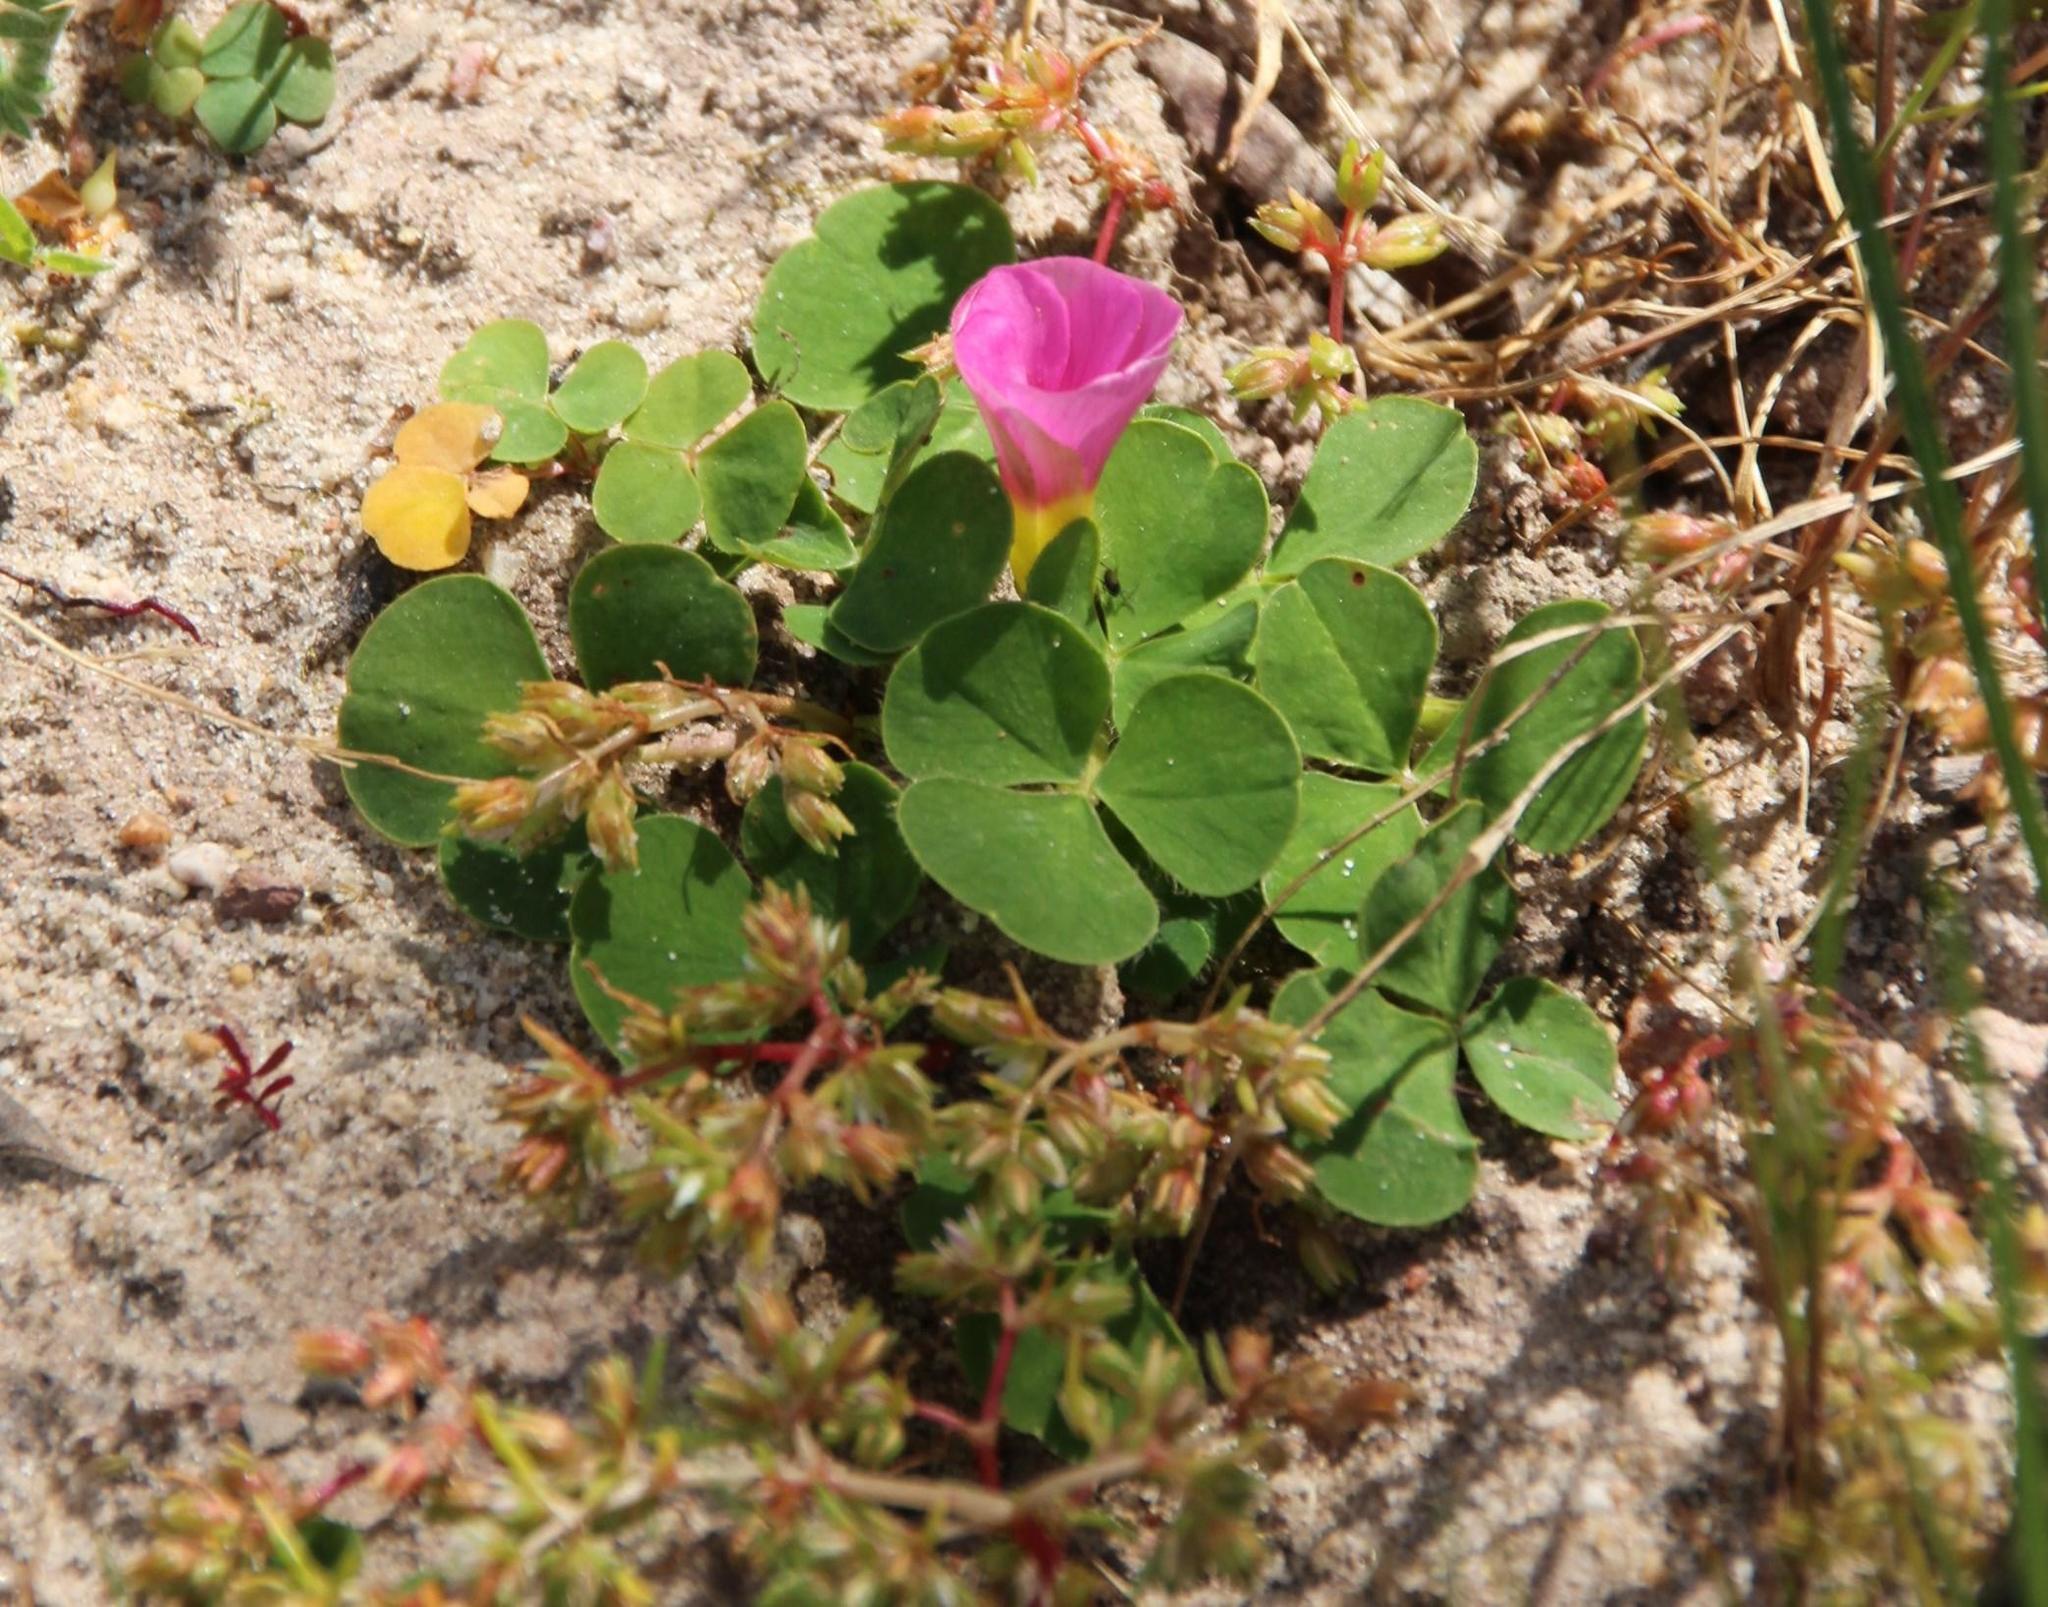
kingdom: Plantae
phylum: Tracheophyta
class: Magnoliopsida
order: Oxalidales
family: Oxalidaceae
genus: Oxalis
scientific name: Oxalis purpurea
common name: Purple woodsorrel
